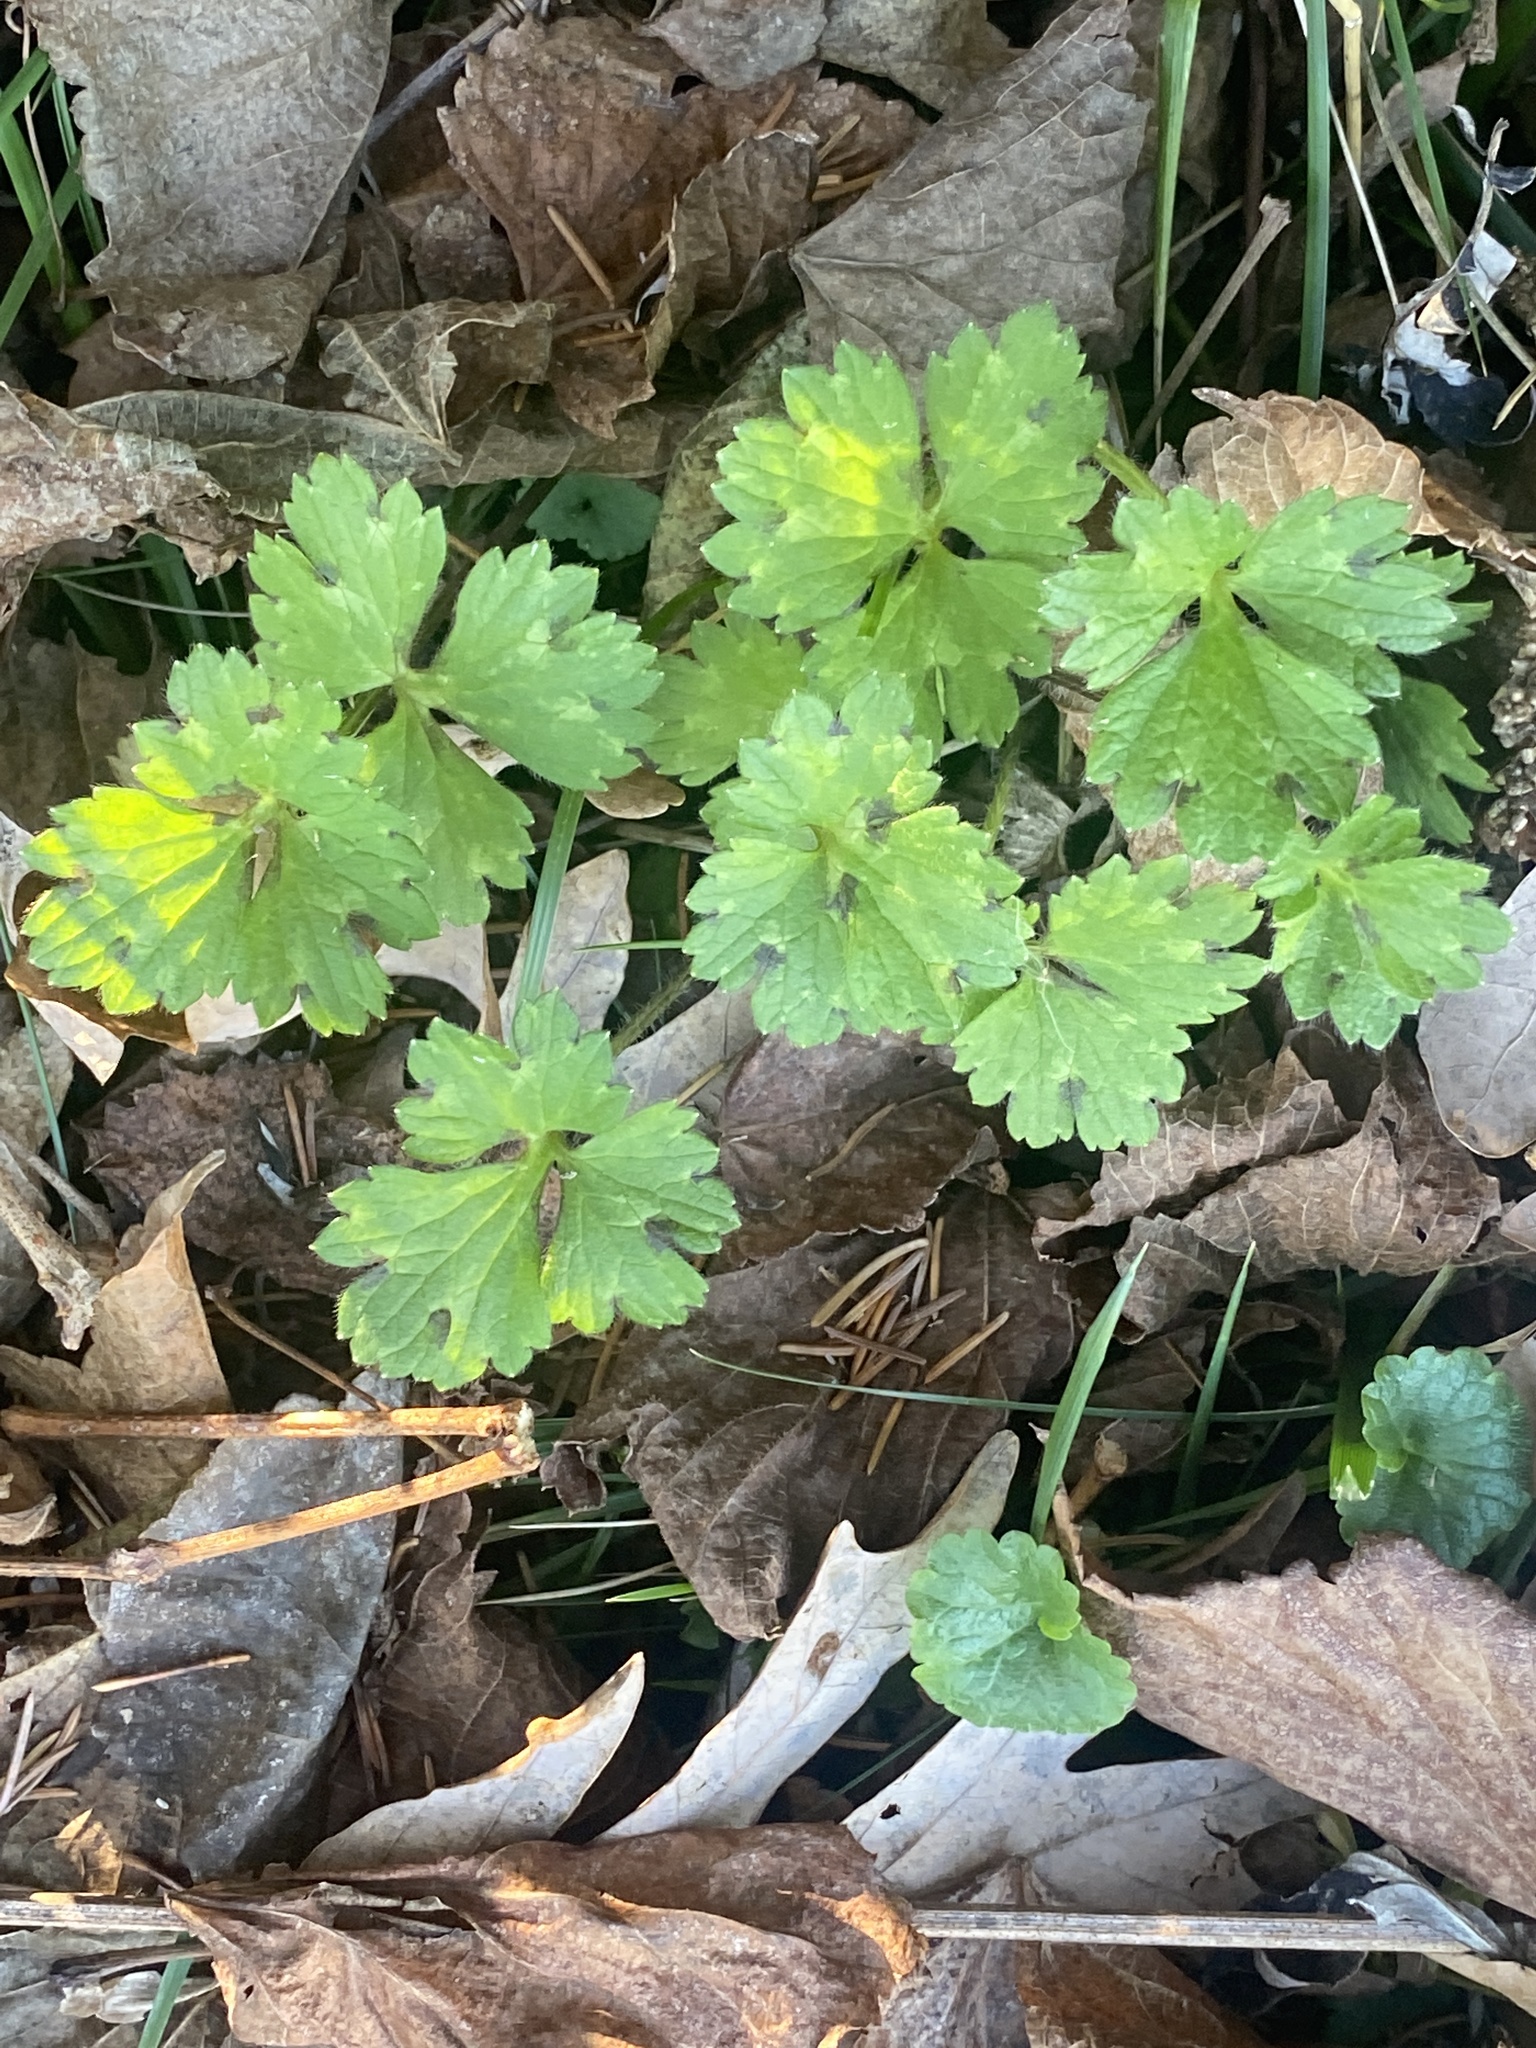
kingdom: Plantae
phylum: Tracheophyta
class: Magnoliopsida
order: Ranunculales
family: Ranunculaceae
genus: Ranunculus
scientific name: Ranunculus repens
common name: Creeping buttercup
